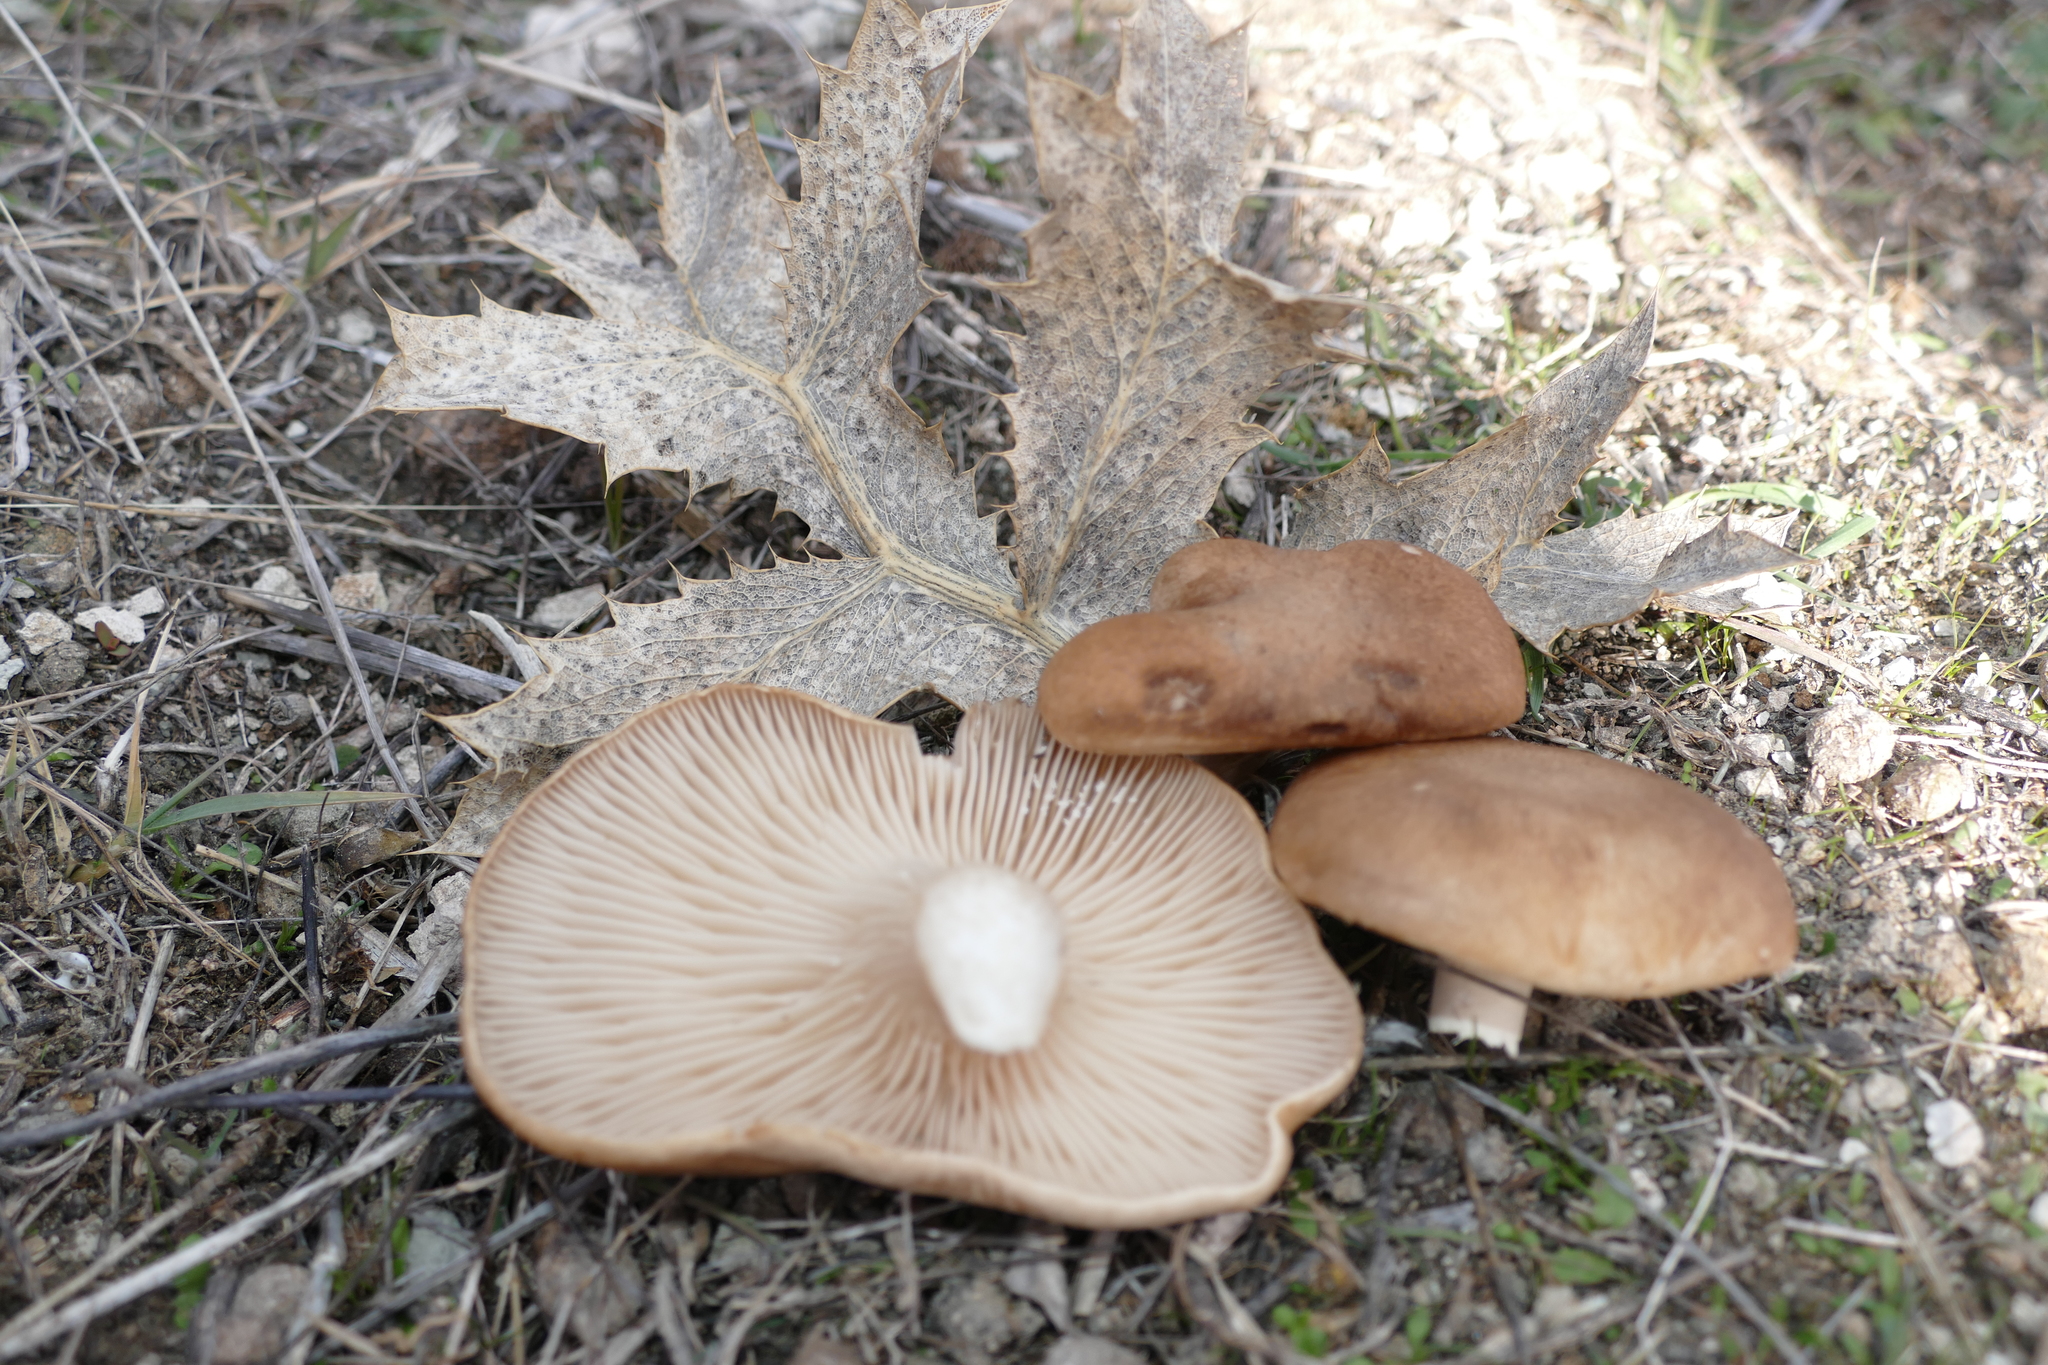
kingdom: Fungi
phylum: Basidiomycota
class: Agaricomycetes
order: Agaricales
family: Pleurotaceae
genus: Pleurotus
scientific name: Pleurotus eryngii
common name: King oyster
